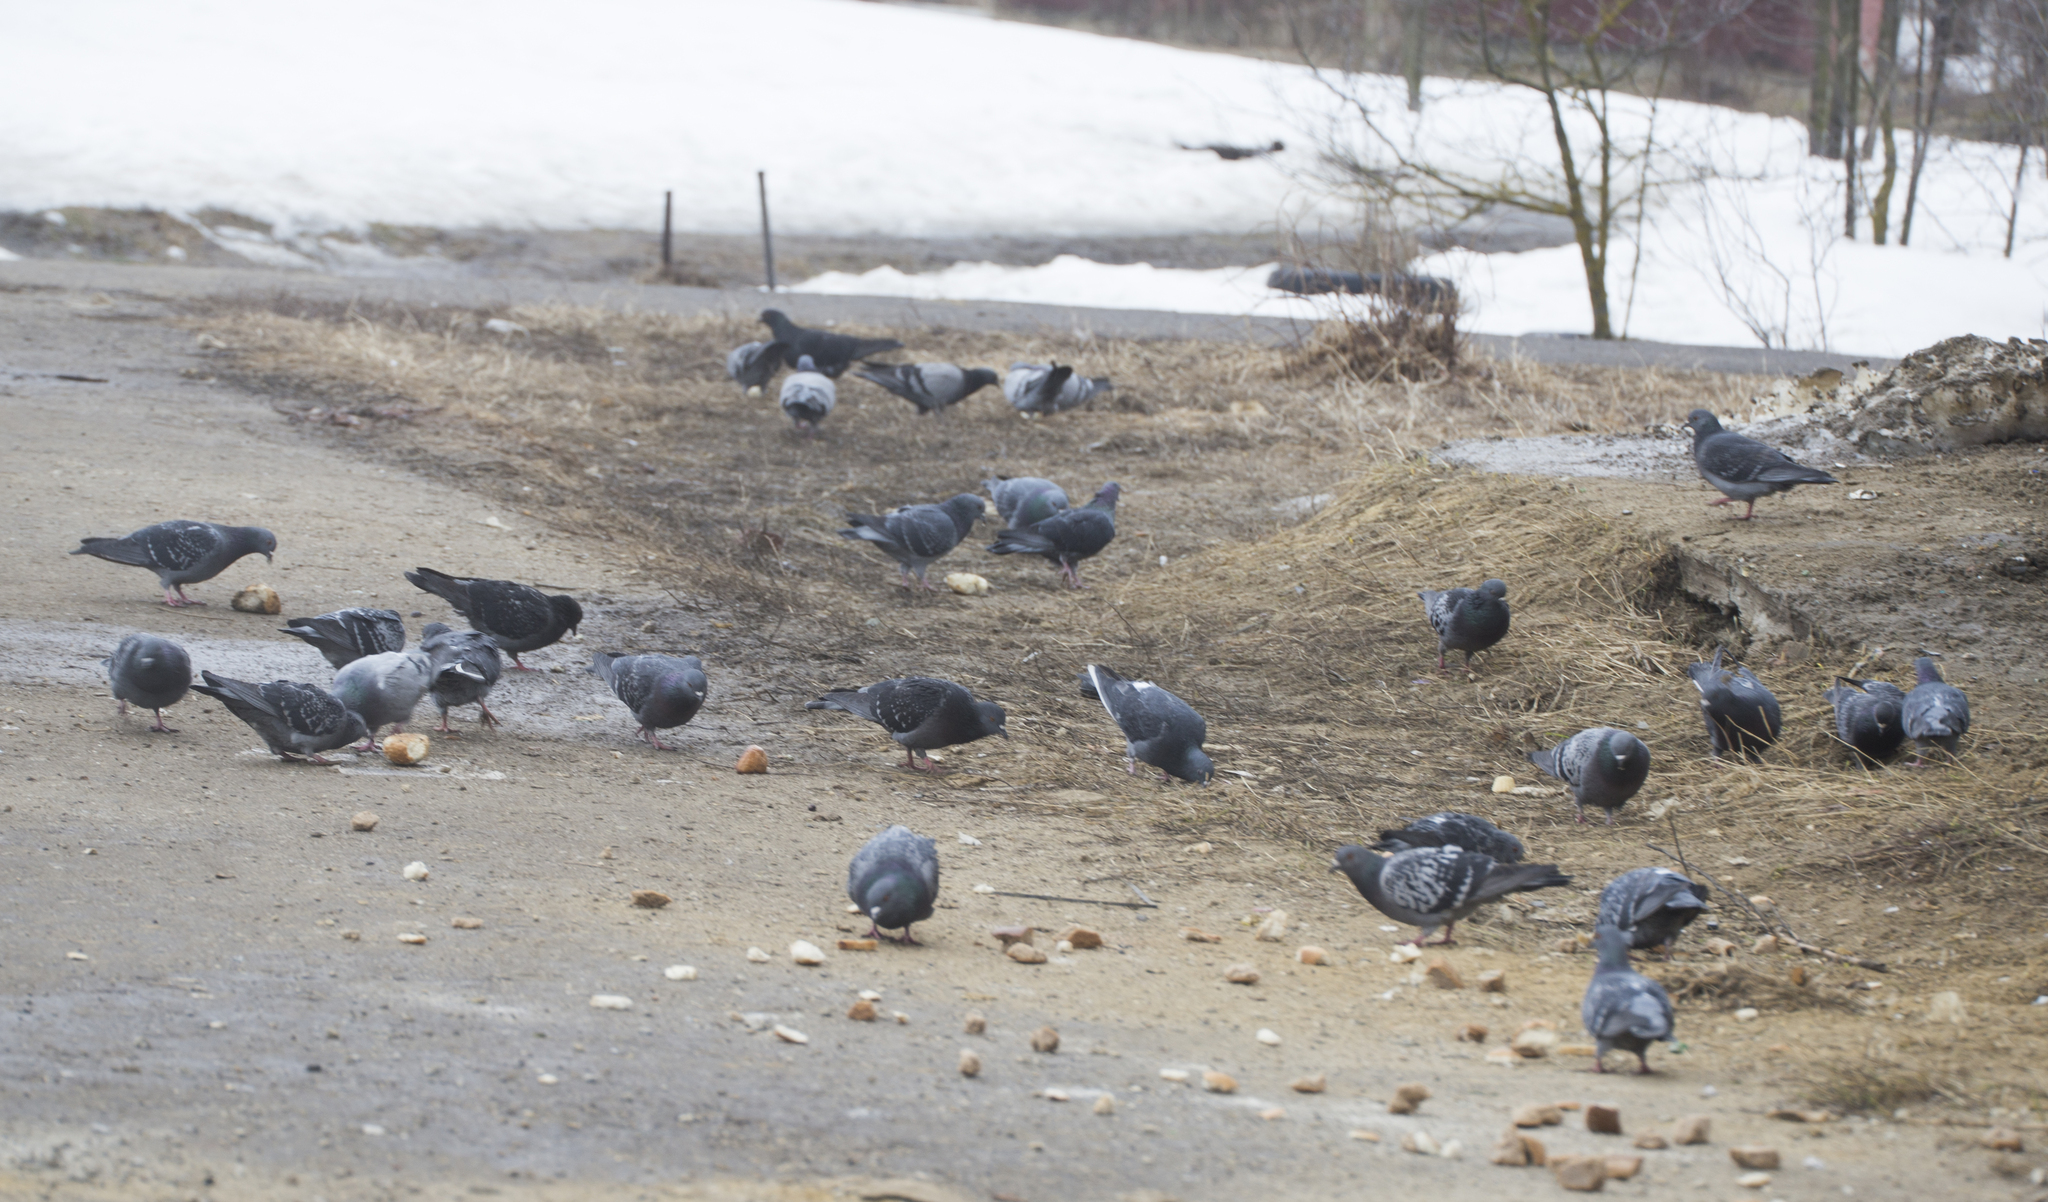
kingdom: Animalia
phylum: Chordata
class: Aves
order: Columbiformes
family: Columbidae
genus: Columba
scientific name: Columba livia
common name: Rock pigeon
